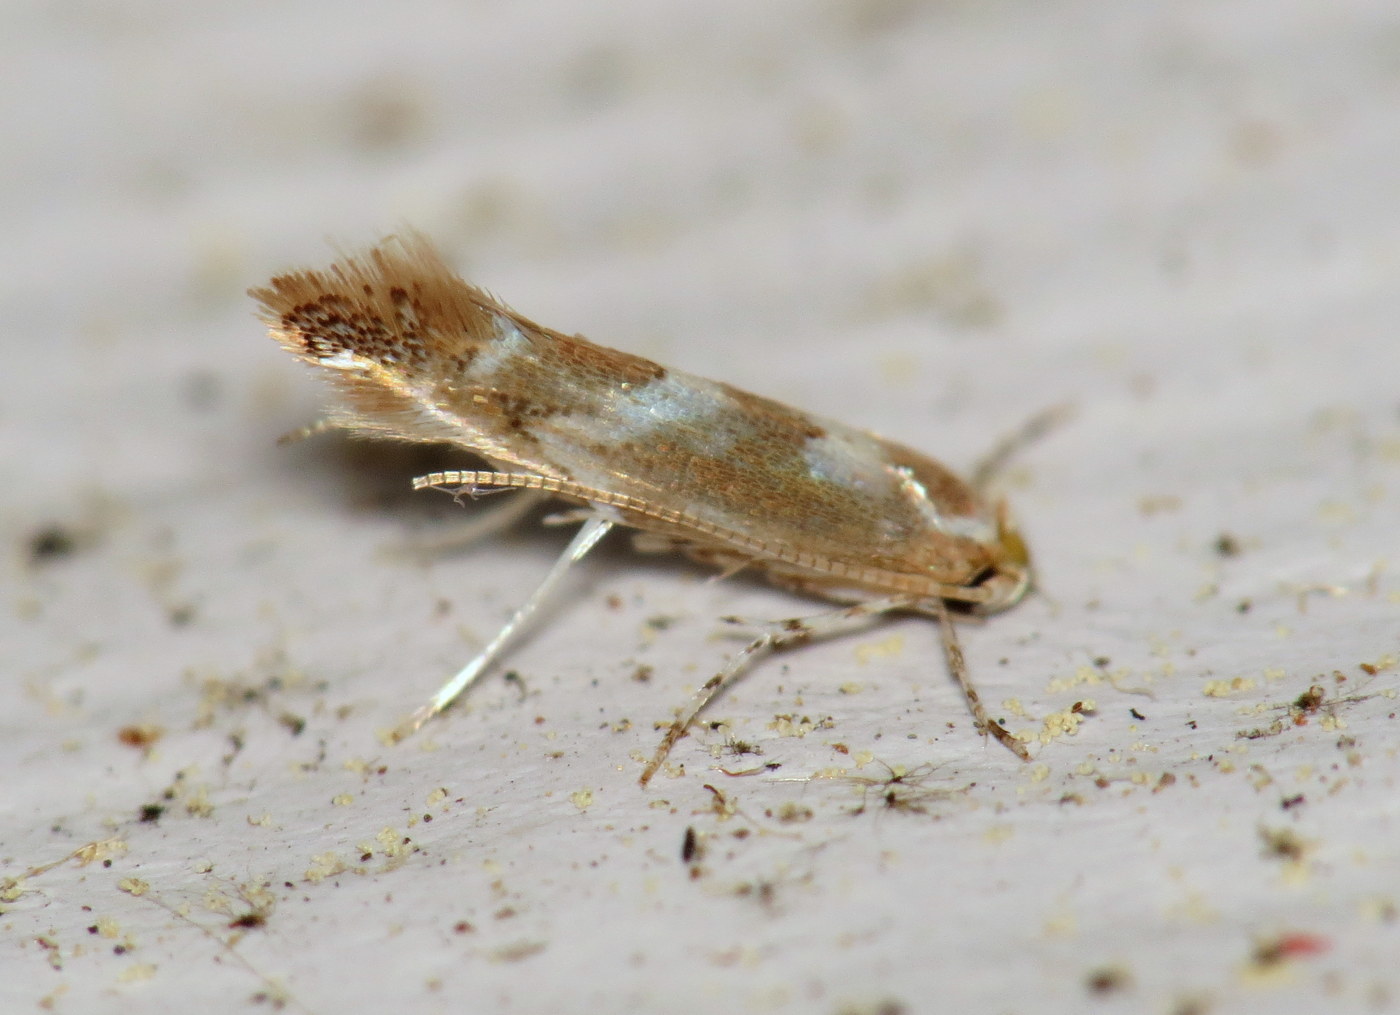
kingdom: Animalia
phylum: Arthropoda
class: Insecta
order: Lepidoptera
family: Gracillariidae
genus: Cameraria
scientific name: Cameraria bethunella
